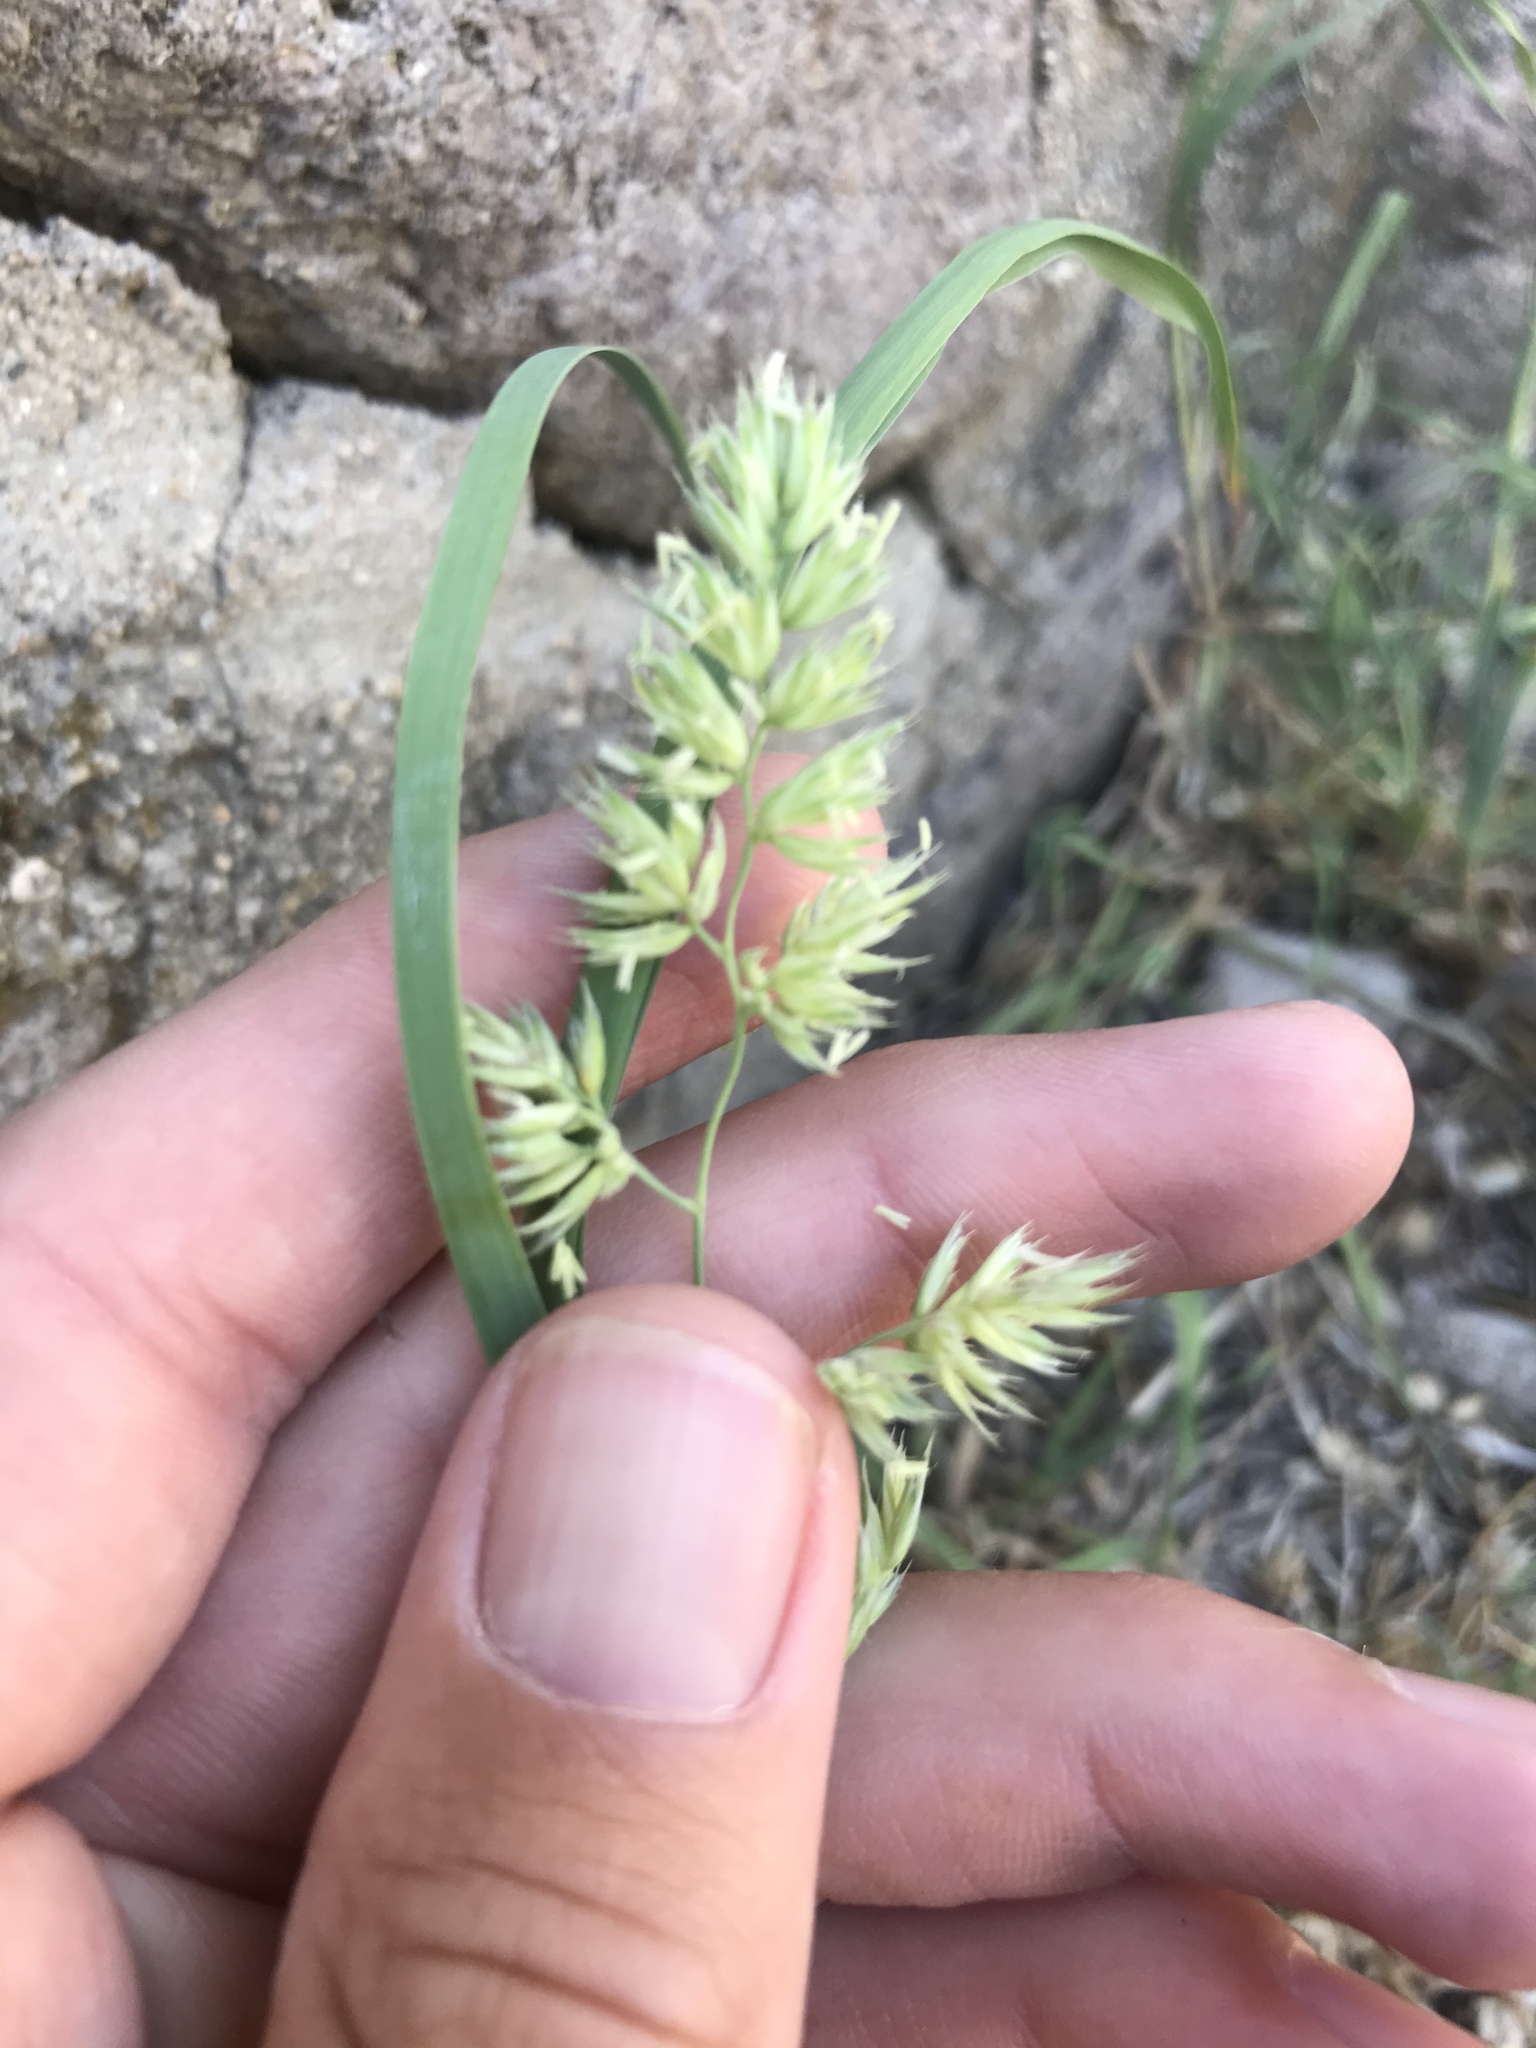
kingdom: Plantae
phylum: Tracheophyta
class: Liliopsida
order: Poales
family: Poaceae
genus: Dactylis
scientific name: Dactylis glomerata
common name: Orchardgrass
